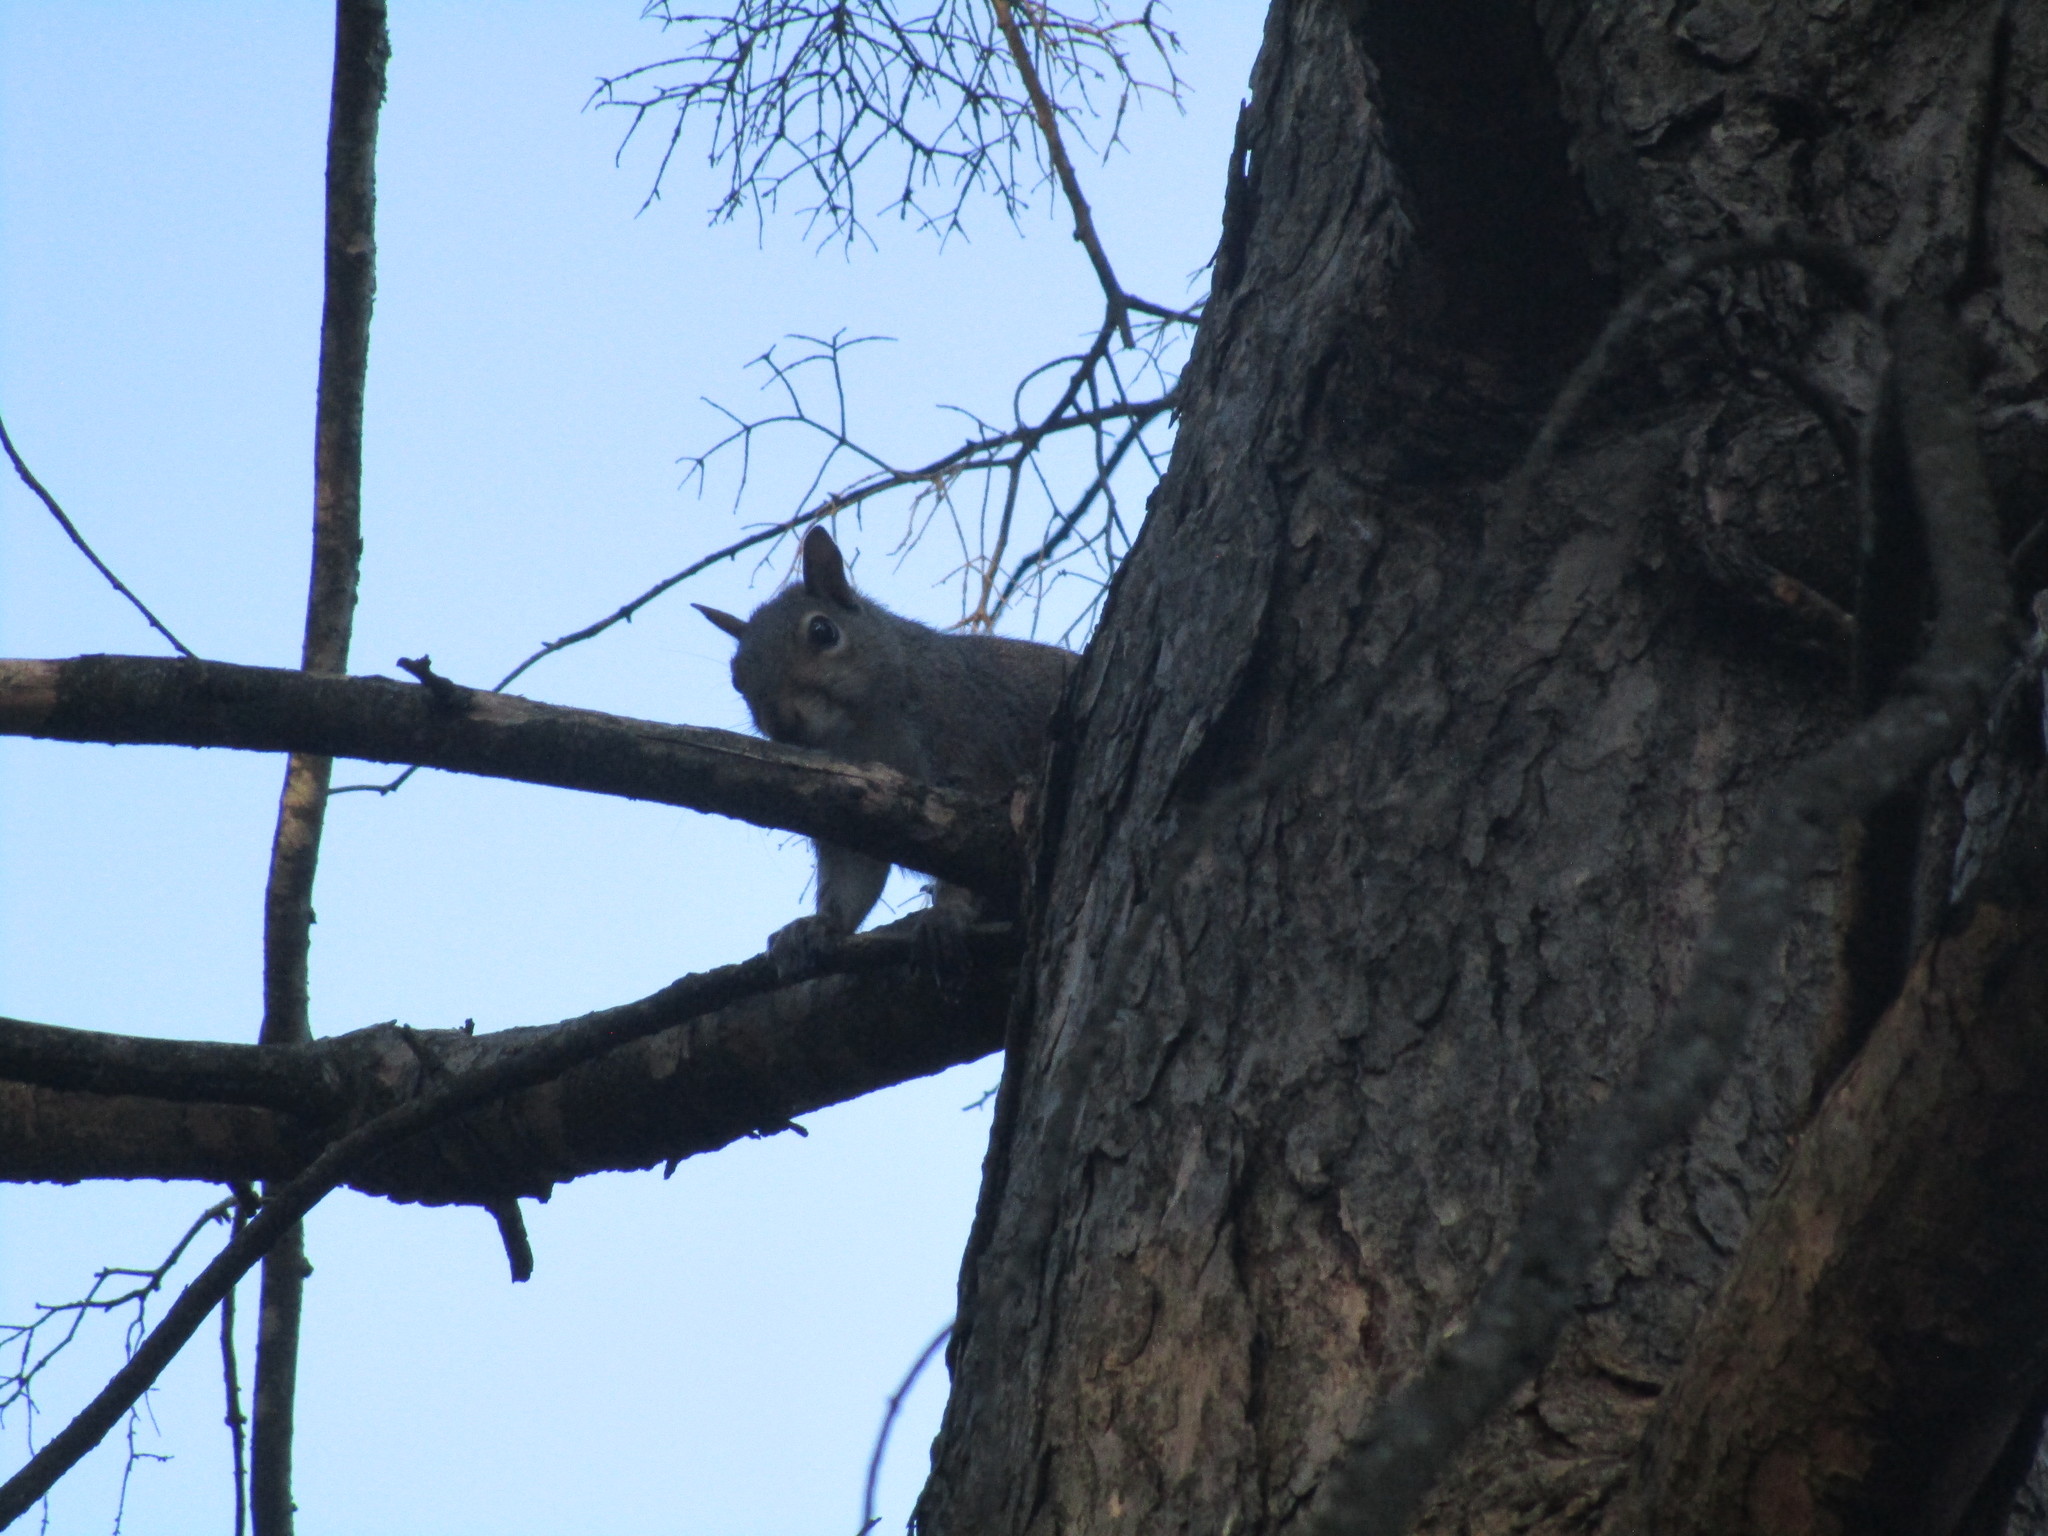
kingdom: Animalia
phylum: Chordata
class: Mammalia
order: Rodentia
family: Sciuridae
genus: Sciurus
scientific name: Sciurus carolinensis
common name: Eastern gray squirrel
